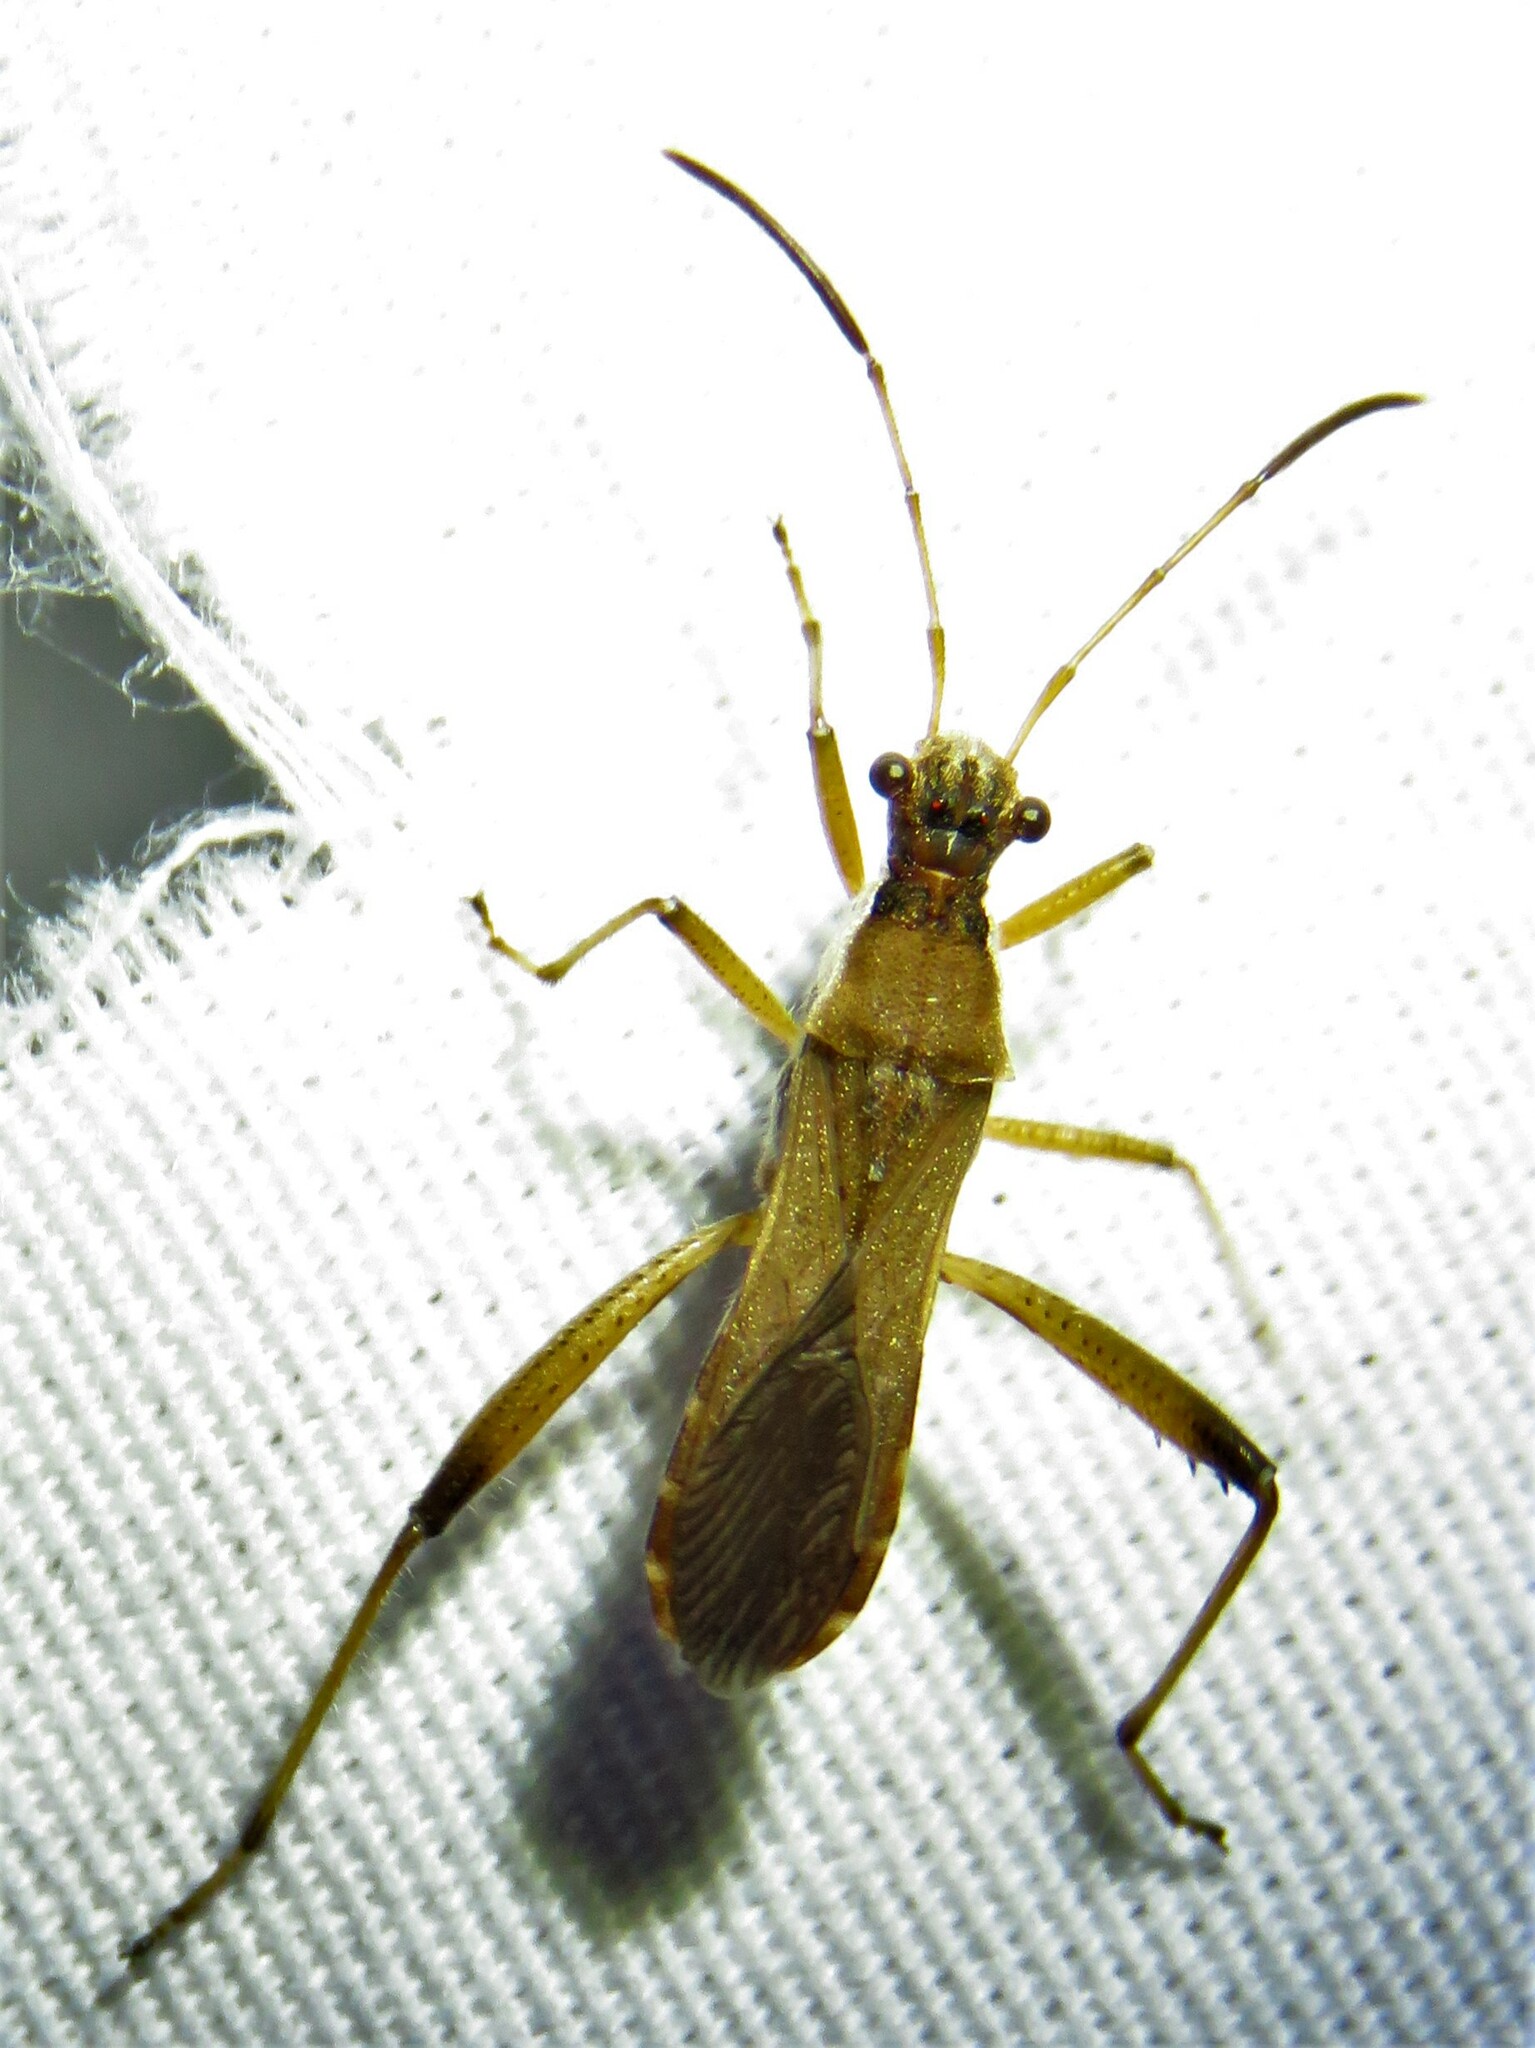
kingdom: Animalia
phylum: Arthropoda
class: Insecta
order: Hemiptera
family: Alydidae
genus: Alydus
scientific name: Alydus pilosulus
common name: Broad-headed bug
